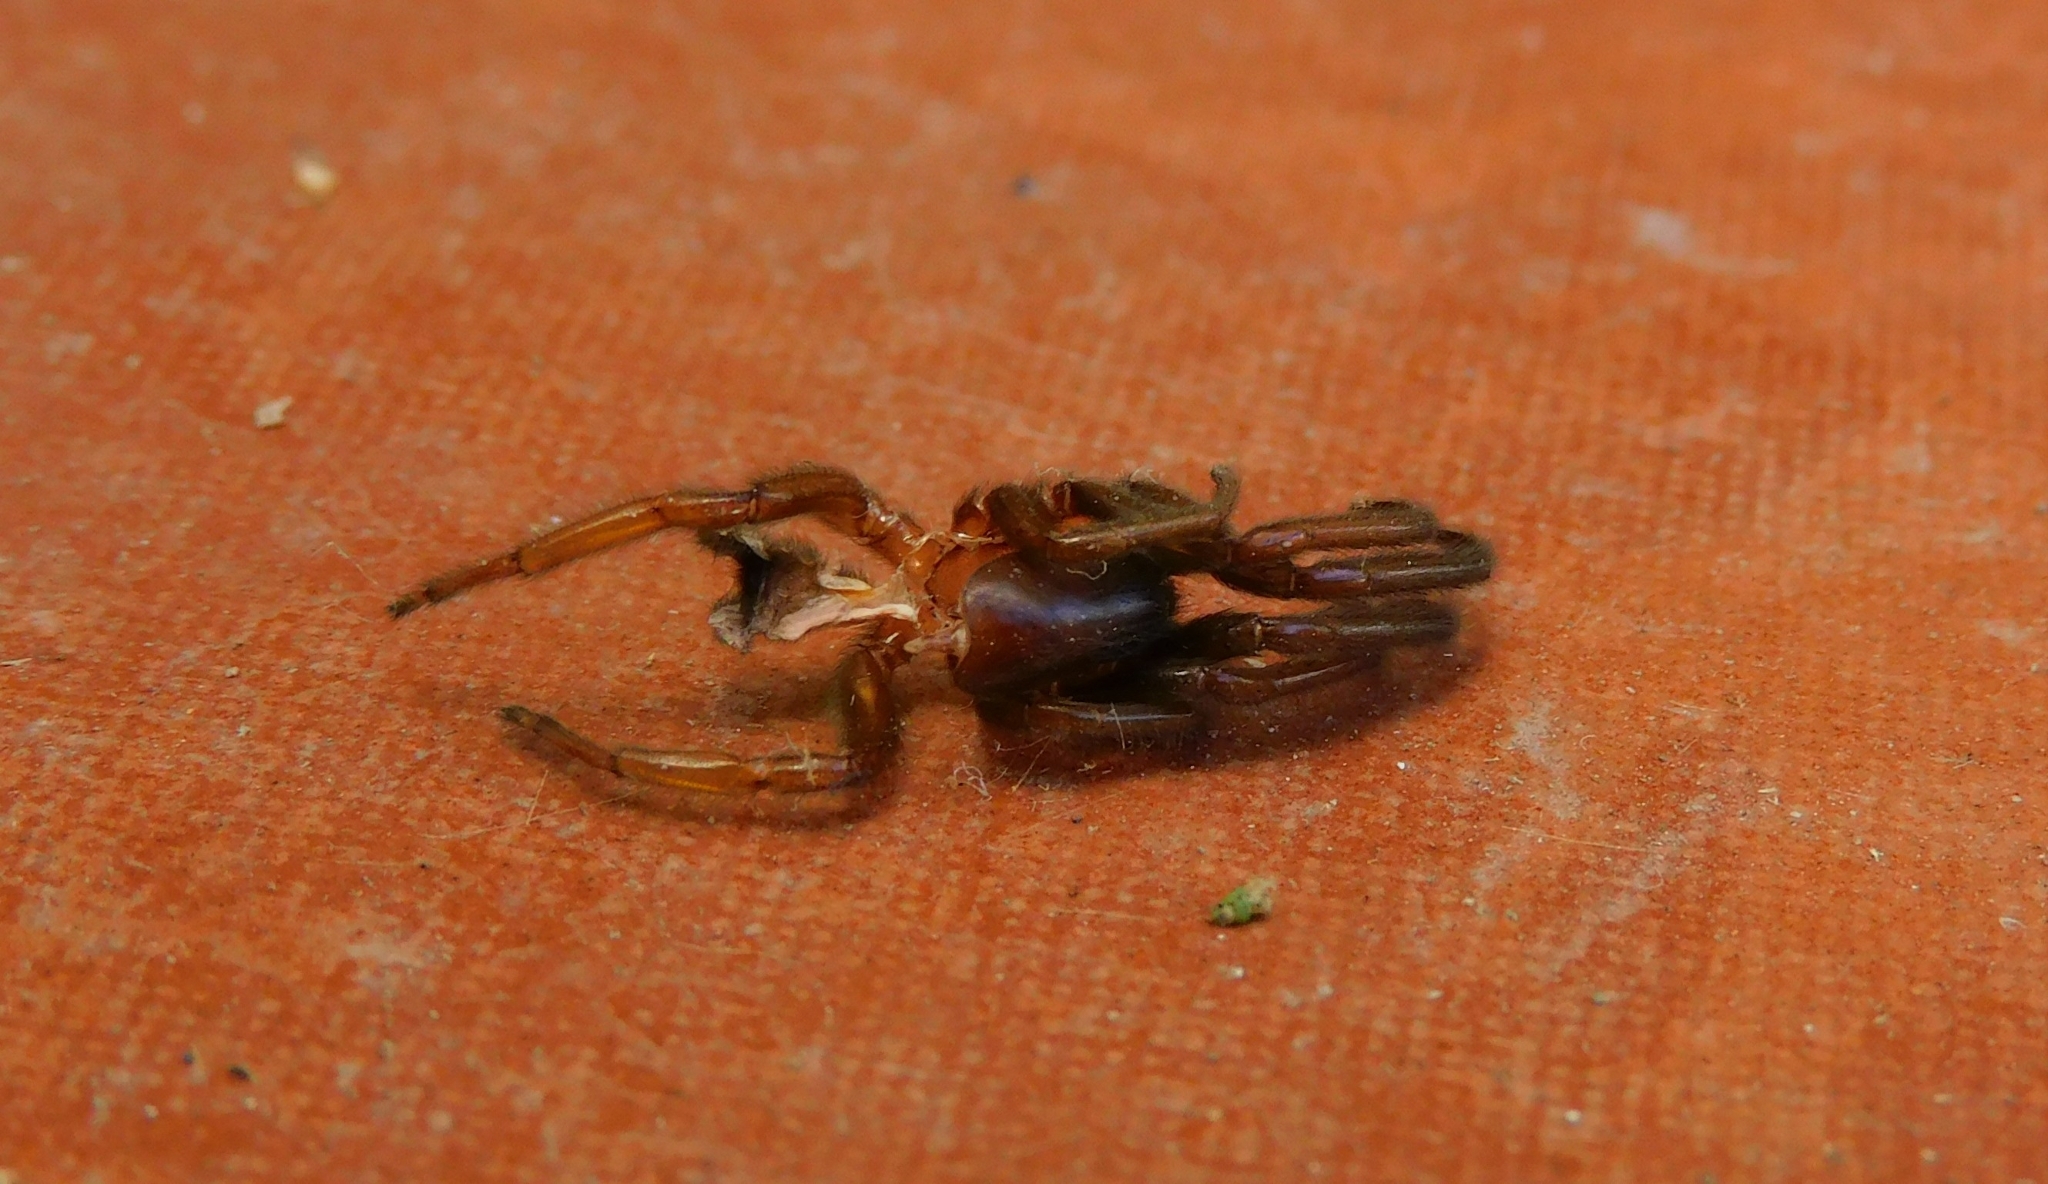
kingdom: Animalia
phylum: Arthropoda
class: Arachnida
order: Araneae
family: Segestriidae
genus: Ariadna
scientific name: Ariadna
